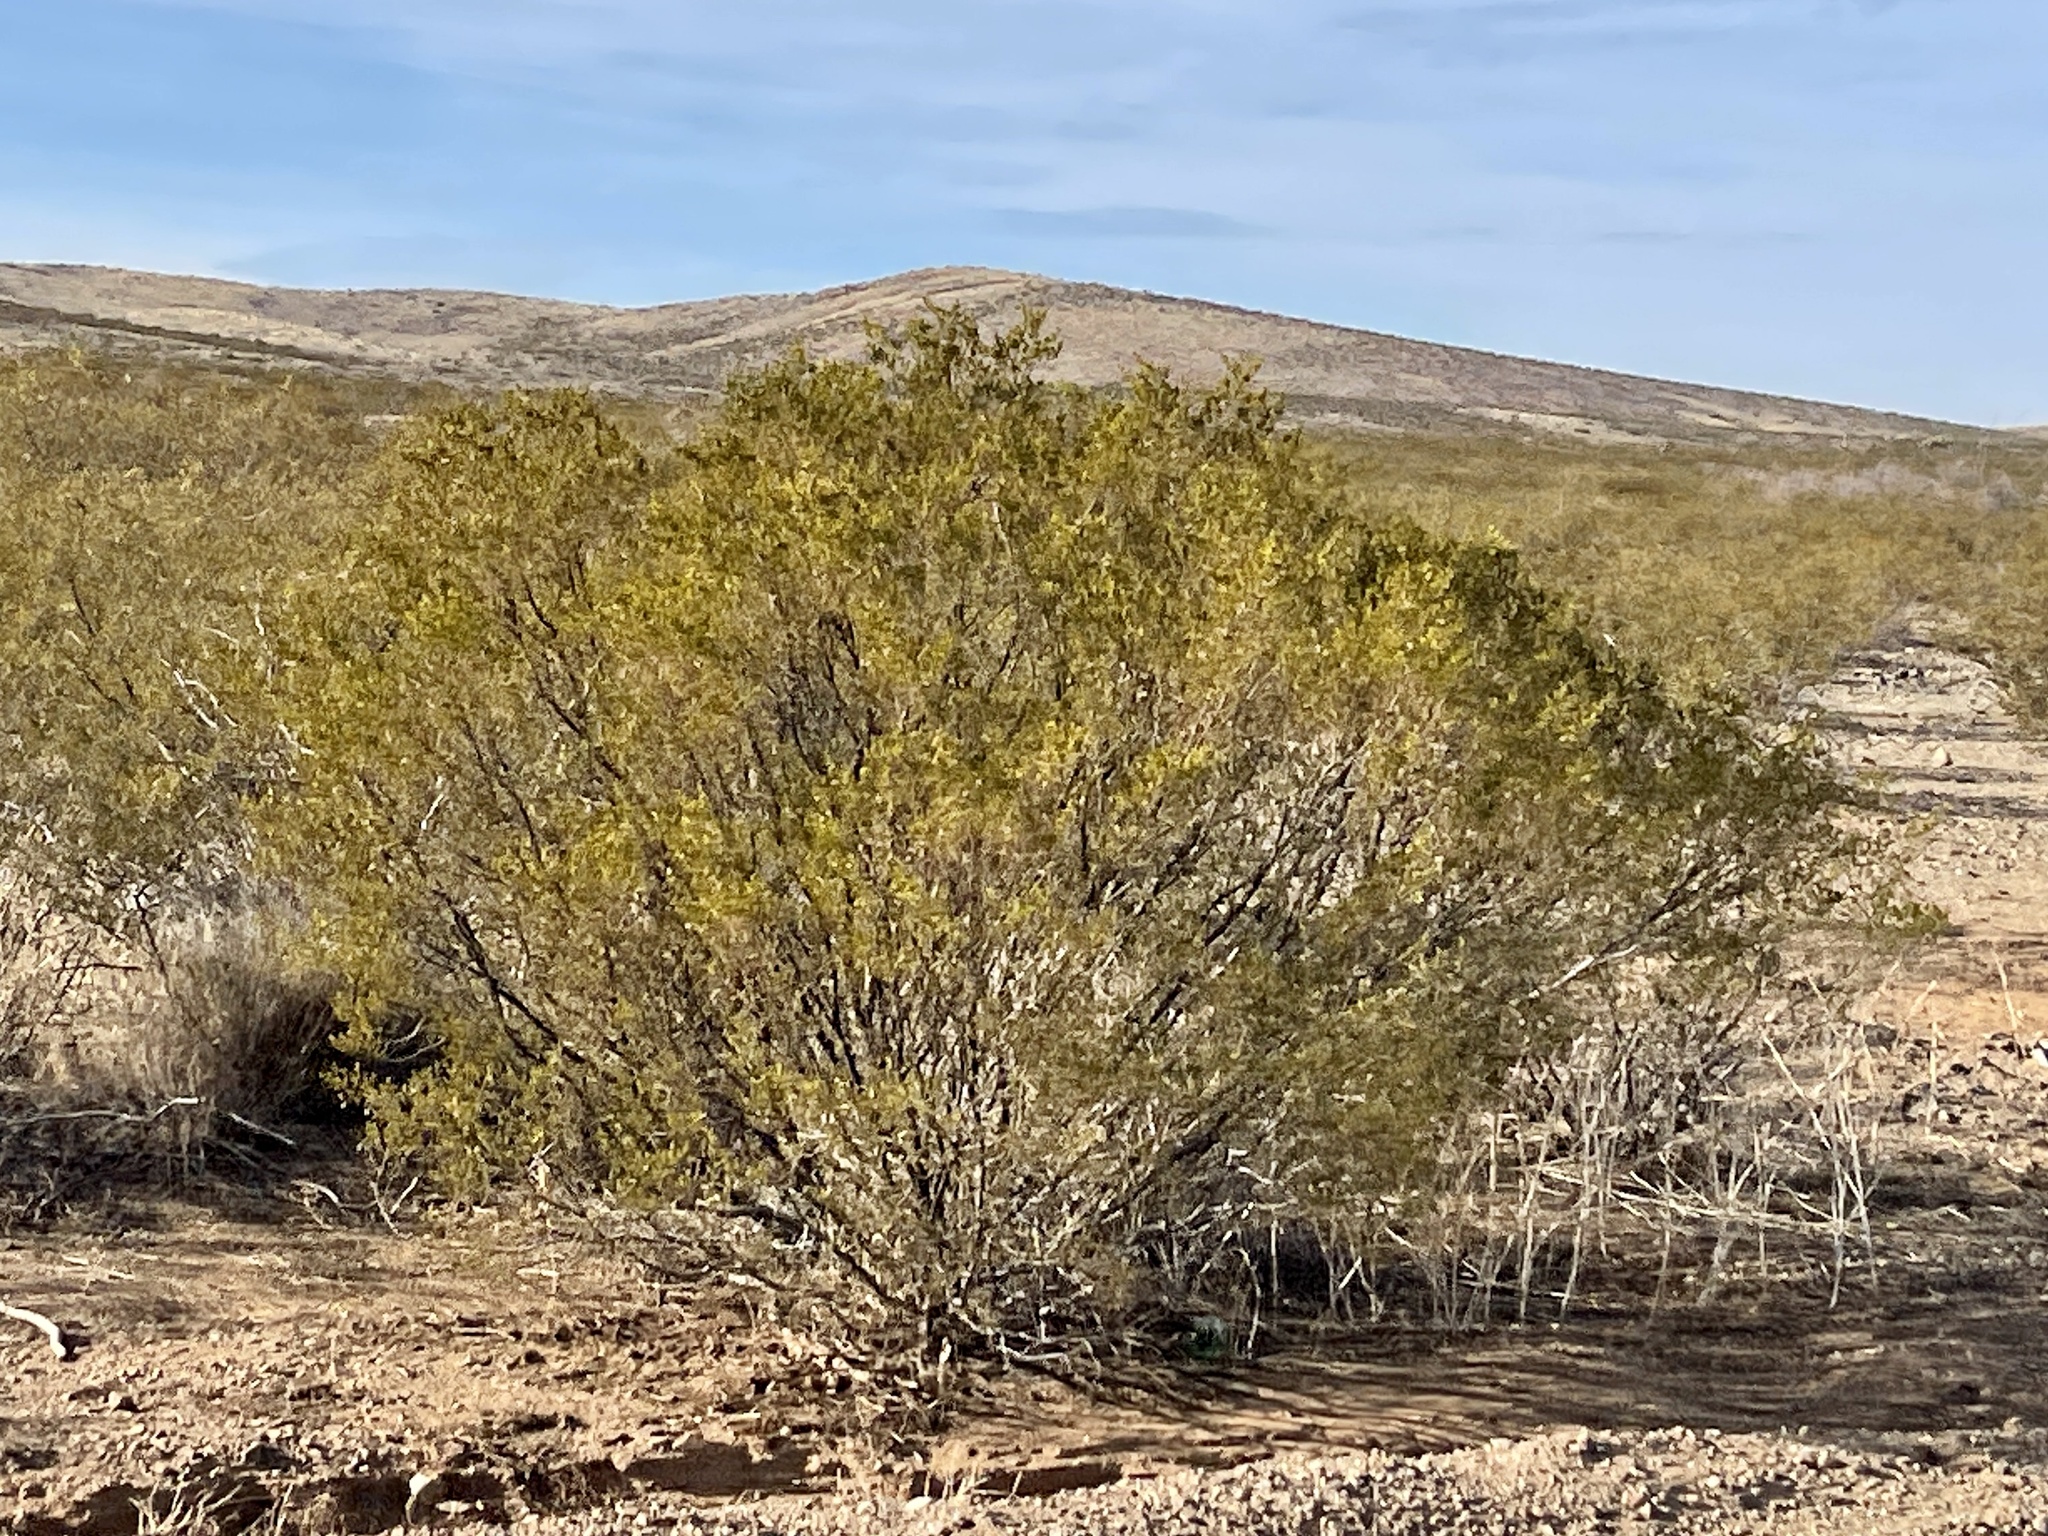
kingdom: Plantae
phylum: Tracheophyta
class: Magnoliopsida
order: Zygophyllales
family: Zygophyllaceae
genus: Larrea
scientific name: Larrea tridentata
